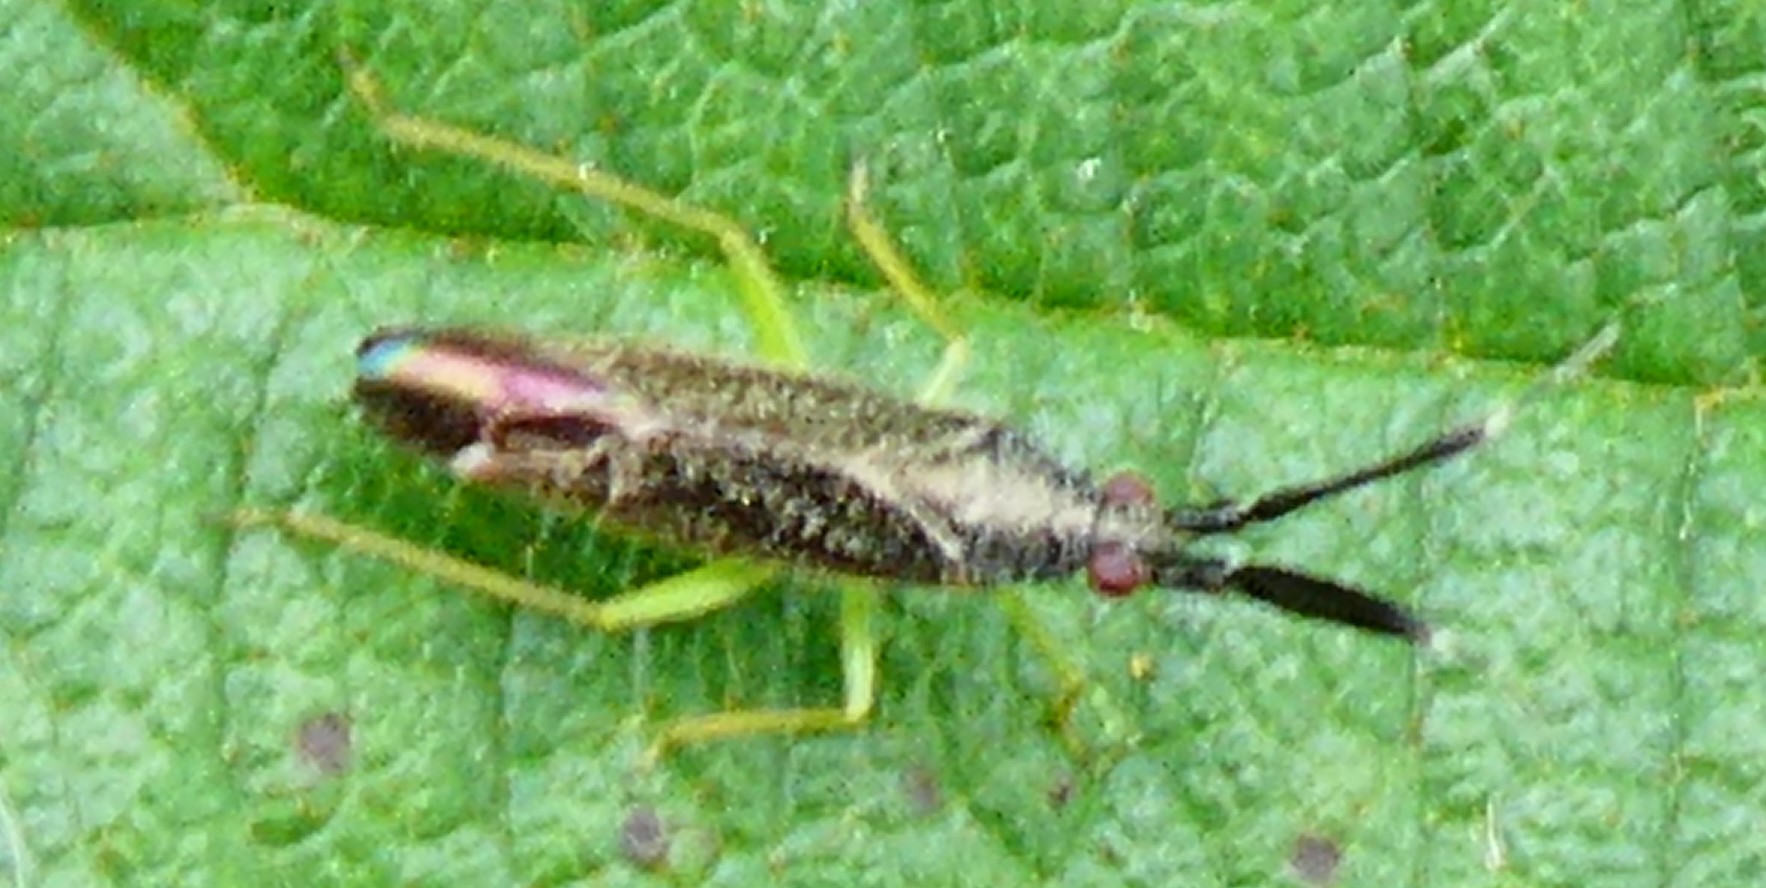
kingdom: Animalia
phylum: Arthropoda
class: Insecta
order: Hemiptera
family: Miridae
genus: Heterotoma
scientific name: Heterotoma planicornis
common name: Plant bug
